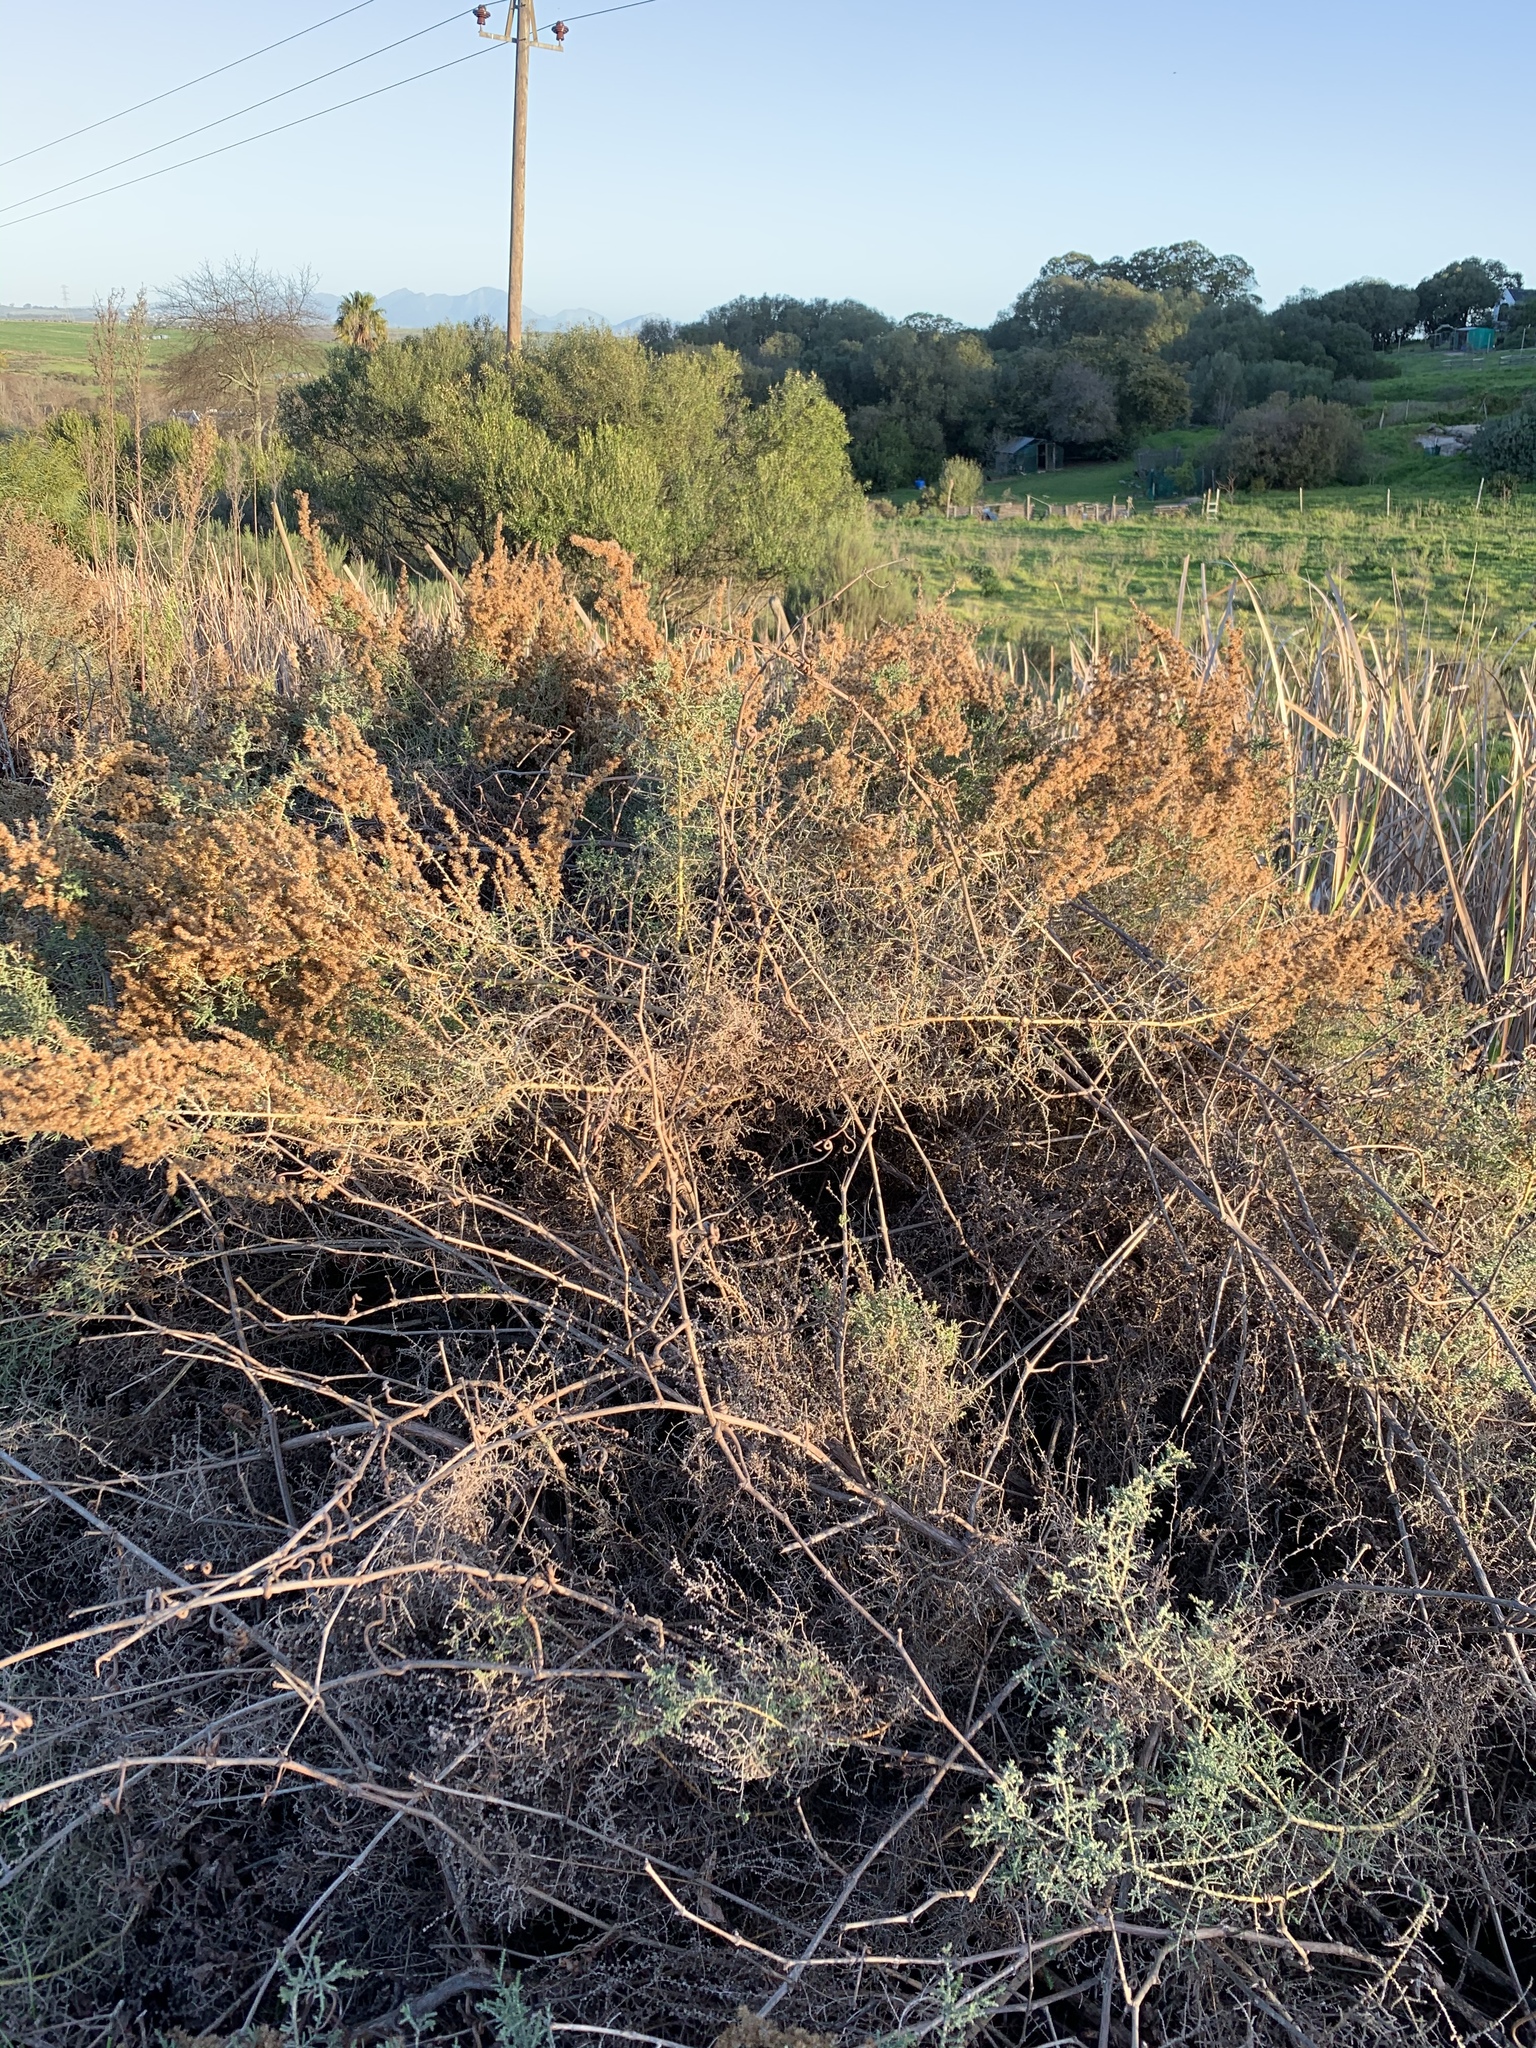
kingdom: Plantae
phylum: Tracheophyta
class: Magnoliopsida
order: Asterales
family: Asteraceae
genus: Seriphium
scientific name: Seriphium plumosum
